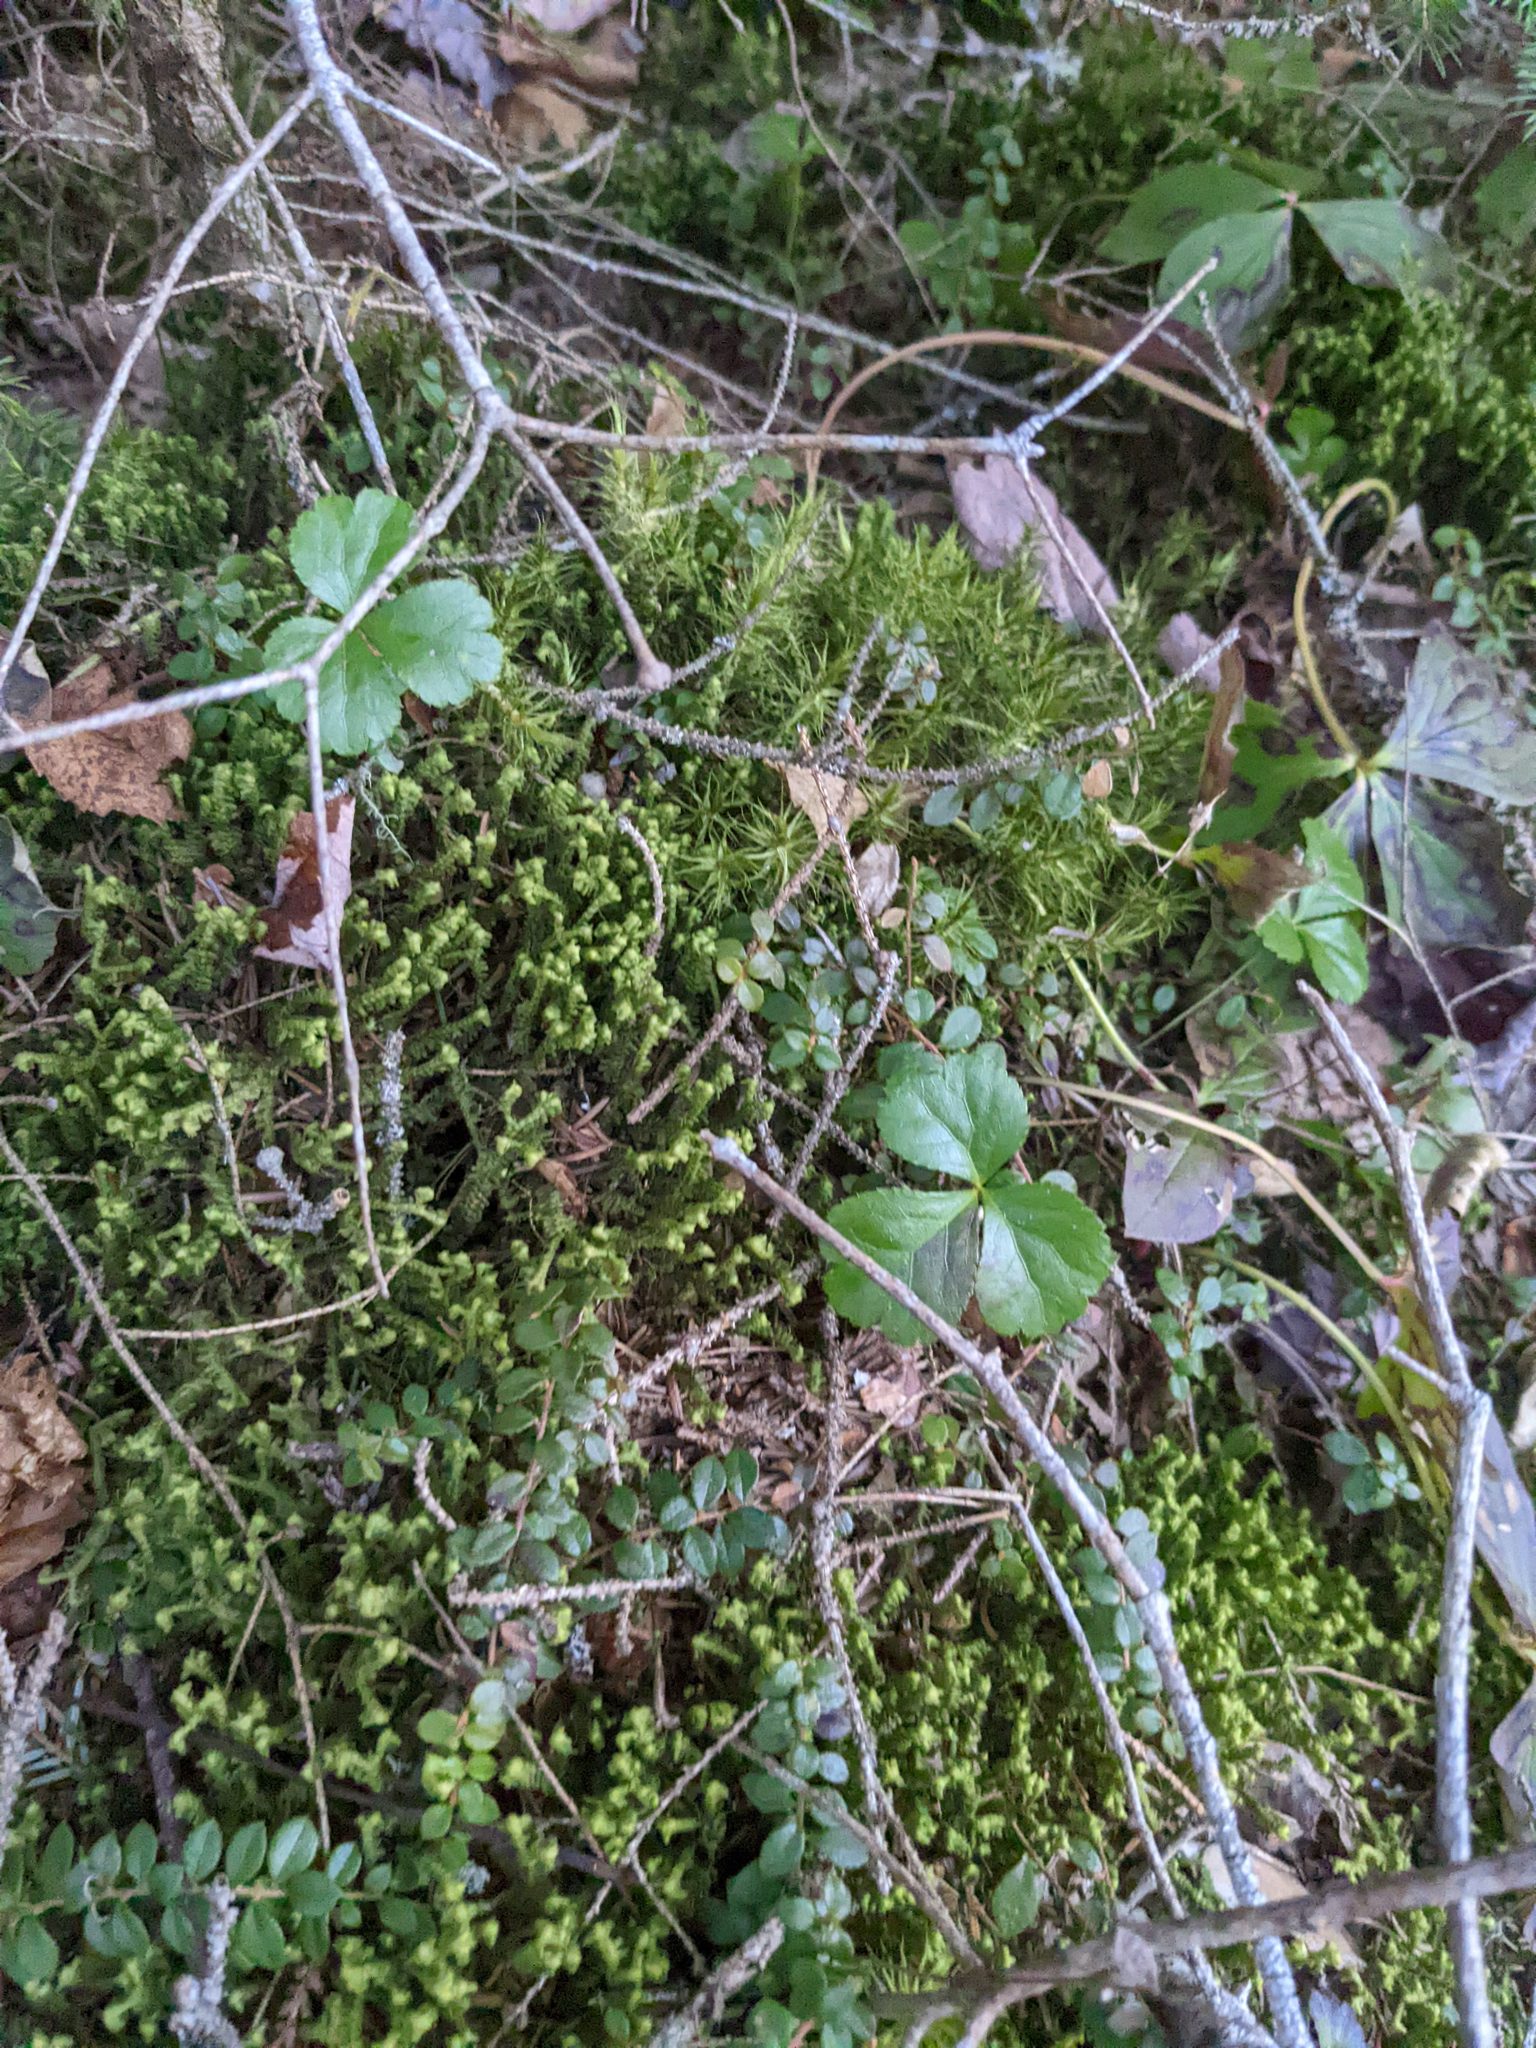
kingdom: Plantae
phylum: Tracheophyta
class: Magnoliopsida
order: Ranunculales
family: Ranunculaceae
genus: Coptis
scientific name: Coptis trifolia
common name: Canker-root
